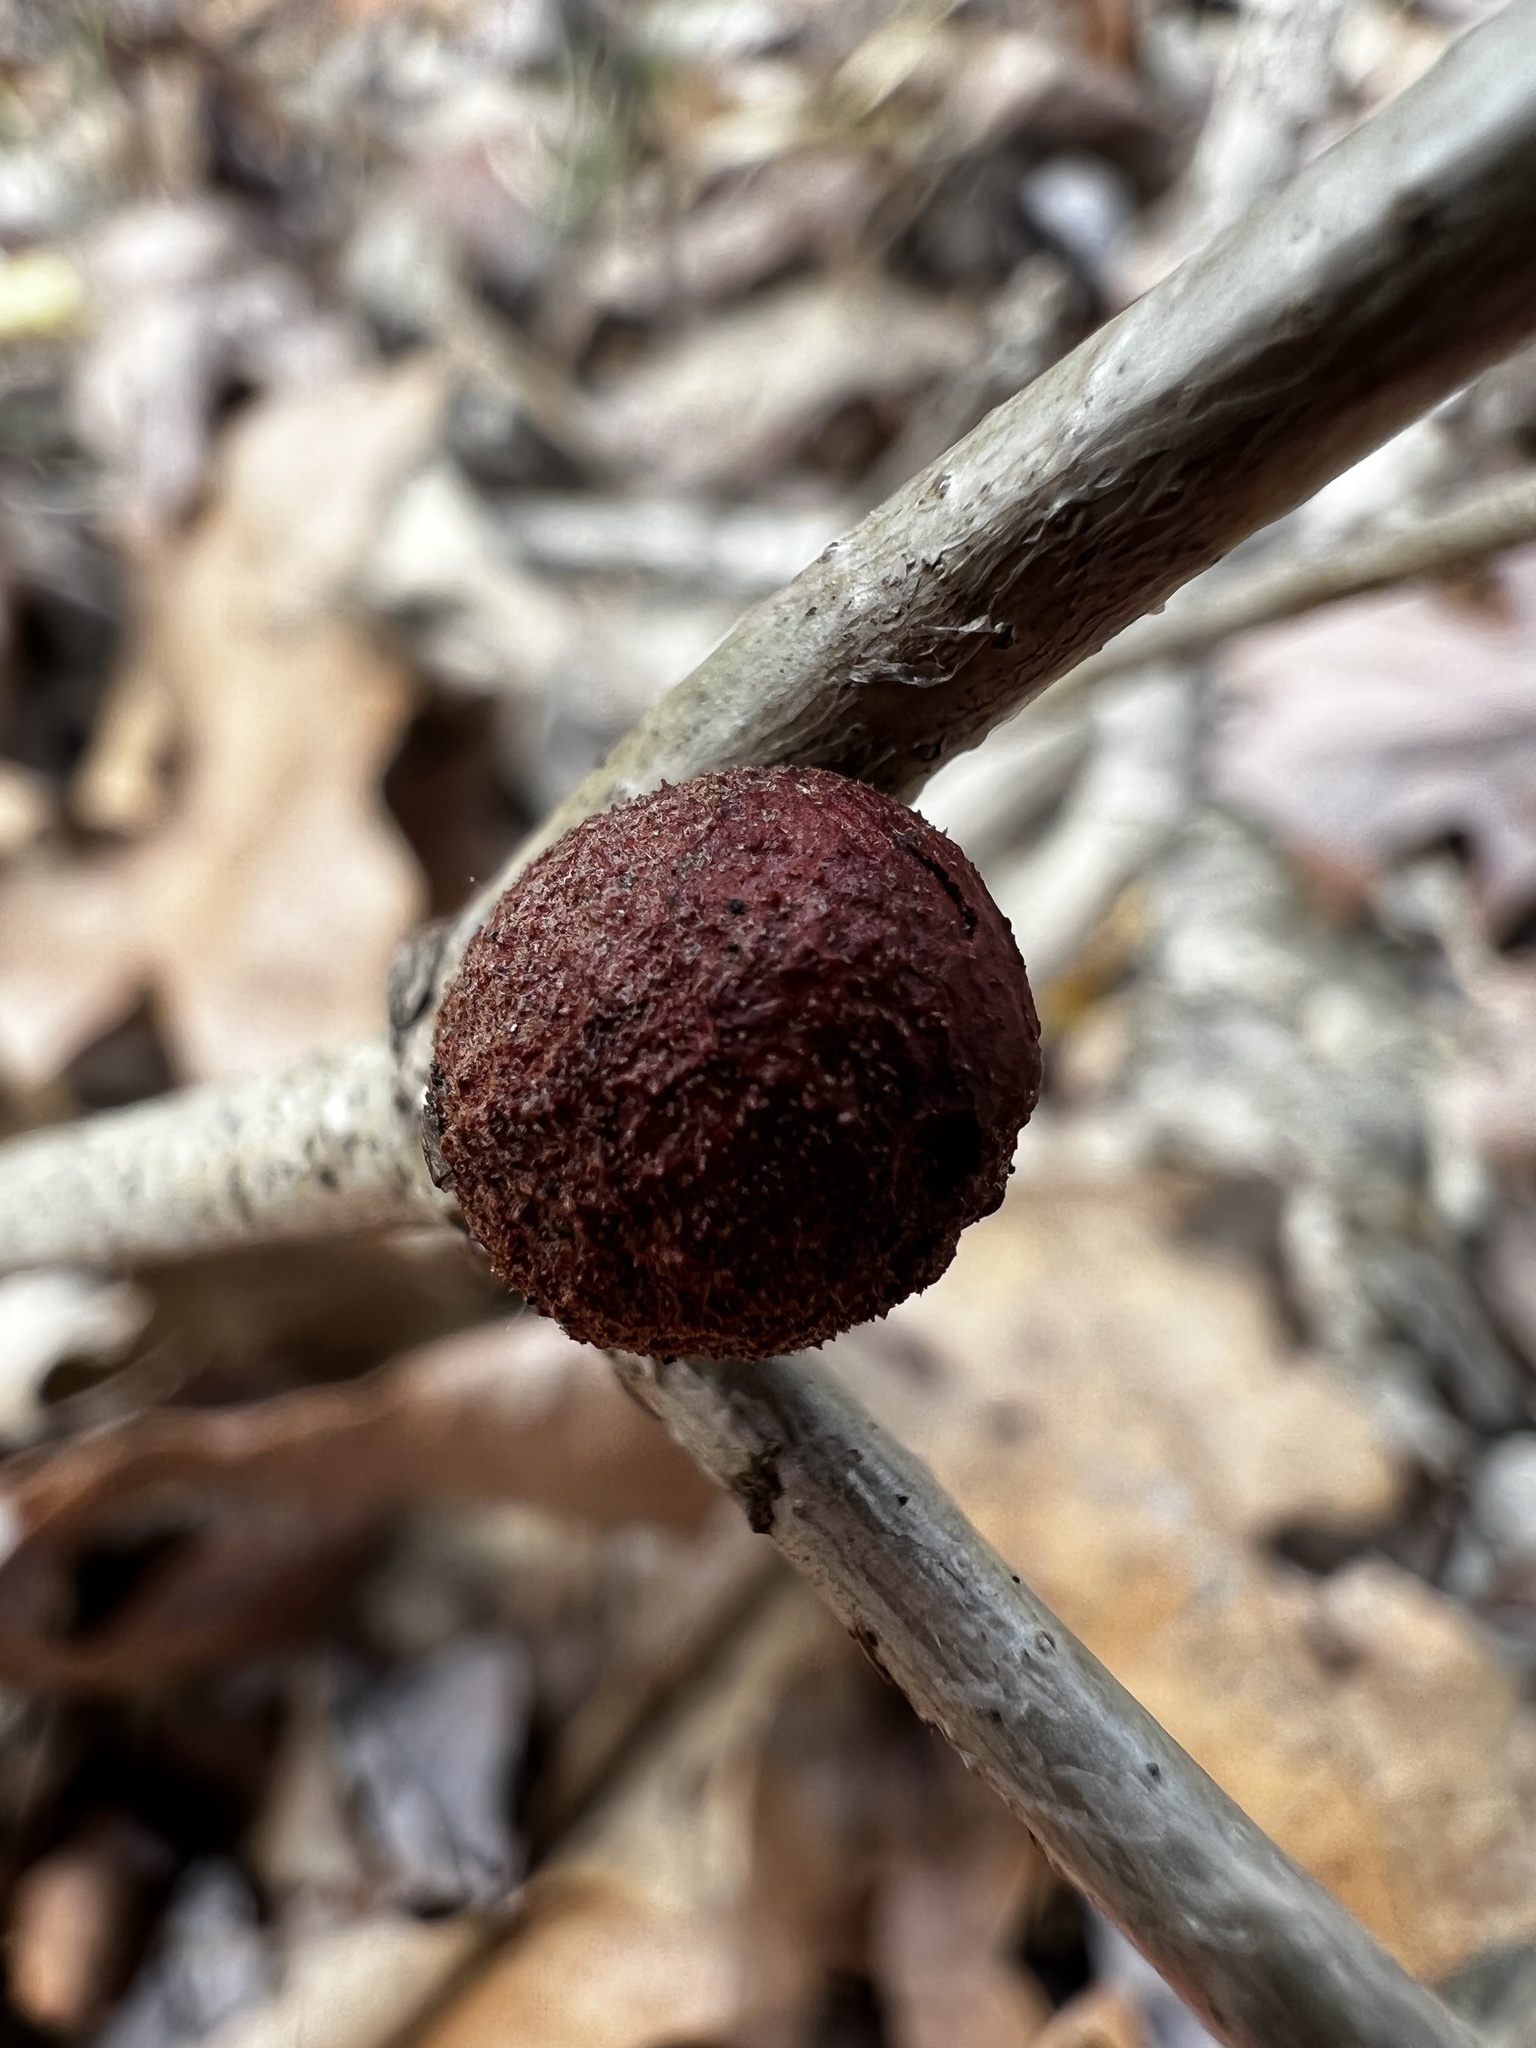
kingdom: Animalia
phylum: Arthropoda
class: Insecta
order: Hymenoptera
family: Cynipidae
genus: Disholcaspis
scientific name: Disholcaspis quercusglobulus
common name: Round bullet gall wasp
